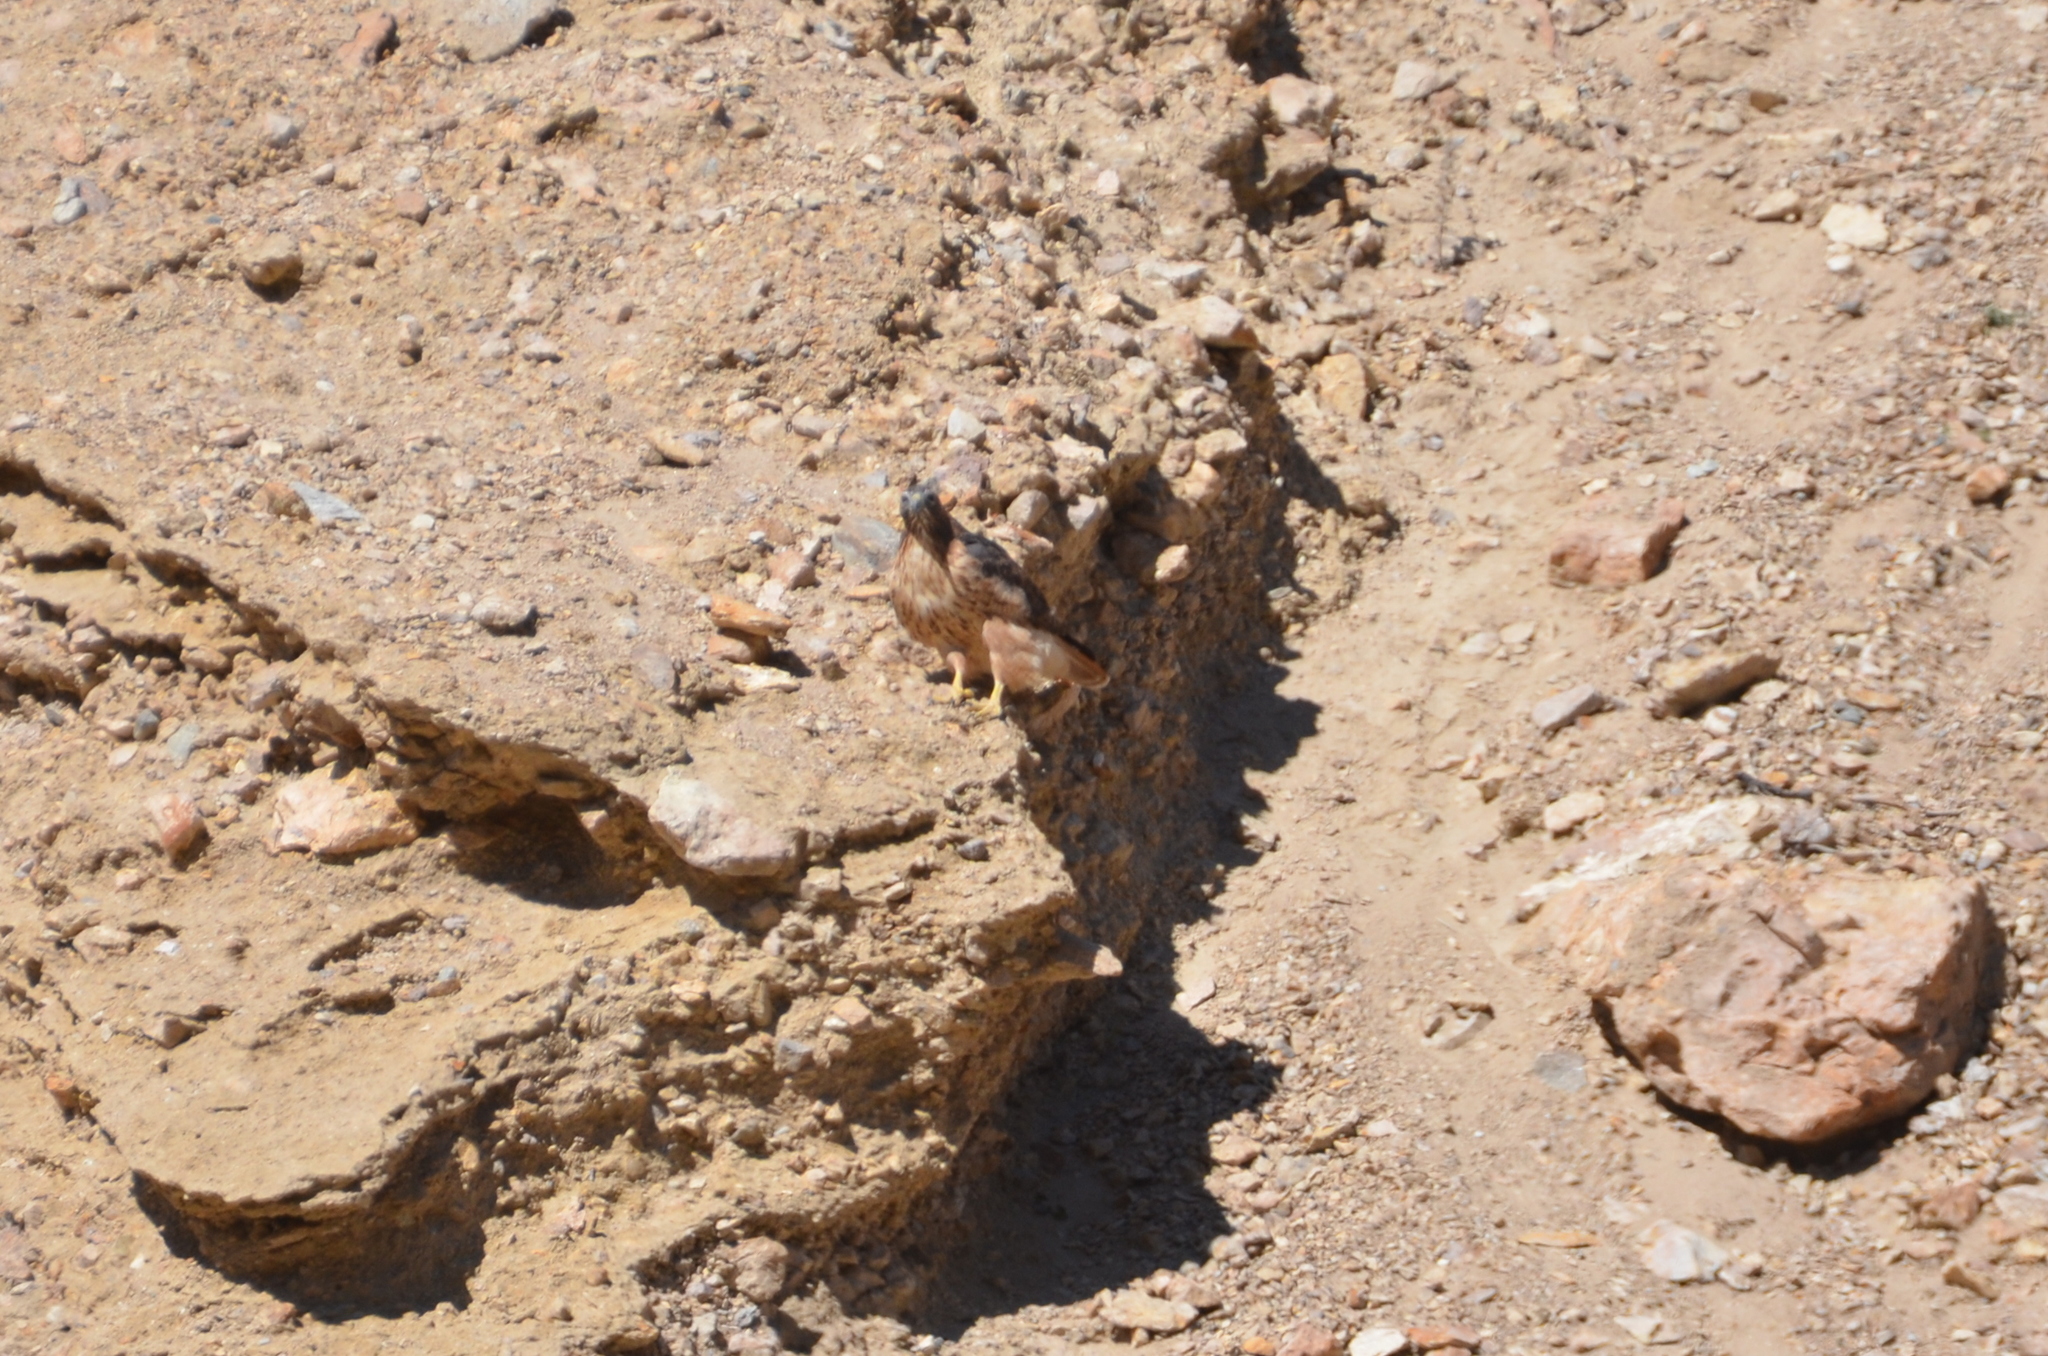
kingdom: Animalia
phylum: Chordata
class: Aves
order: Accipitriformes
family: Accipitridae
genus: Buteo
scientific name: Buteo jamaicensis
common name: Red-tailed hawk
